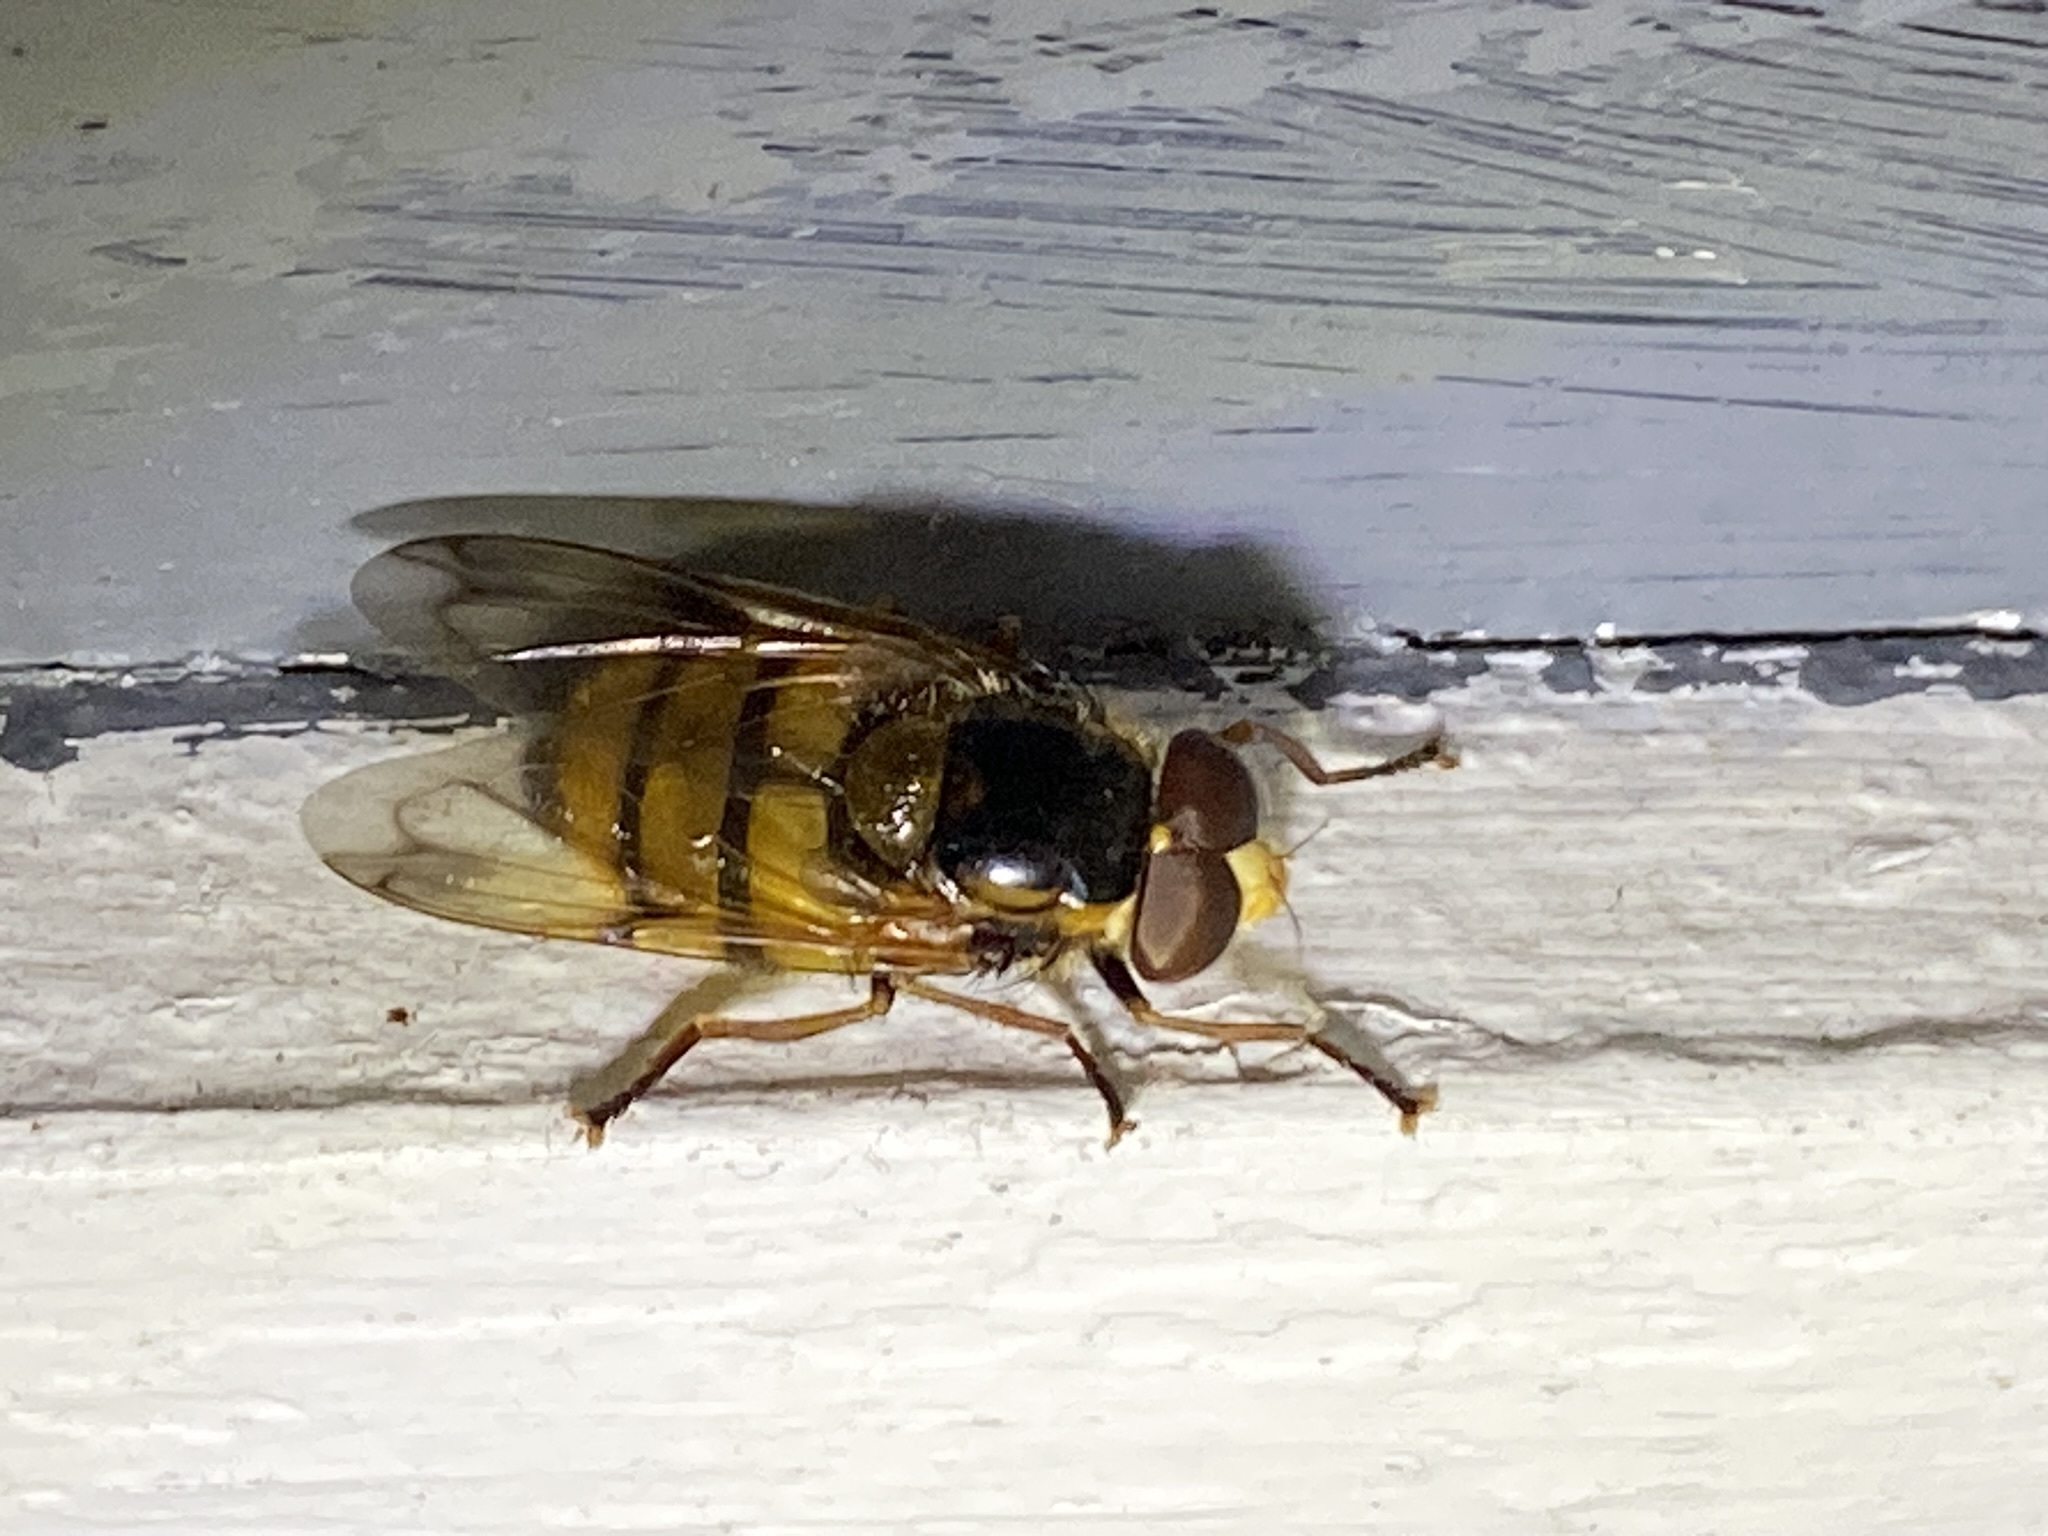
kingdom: Animalia
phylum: Arthropoda
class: Insecta
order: Diptera
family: Syrphidae
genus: Volucella
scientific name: Volucella inanis
